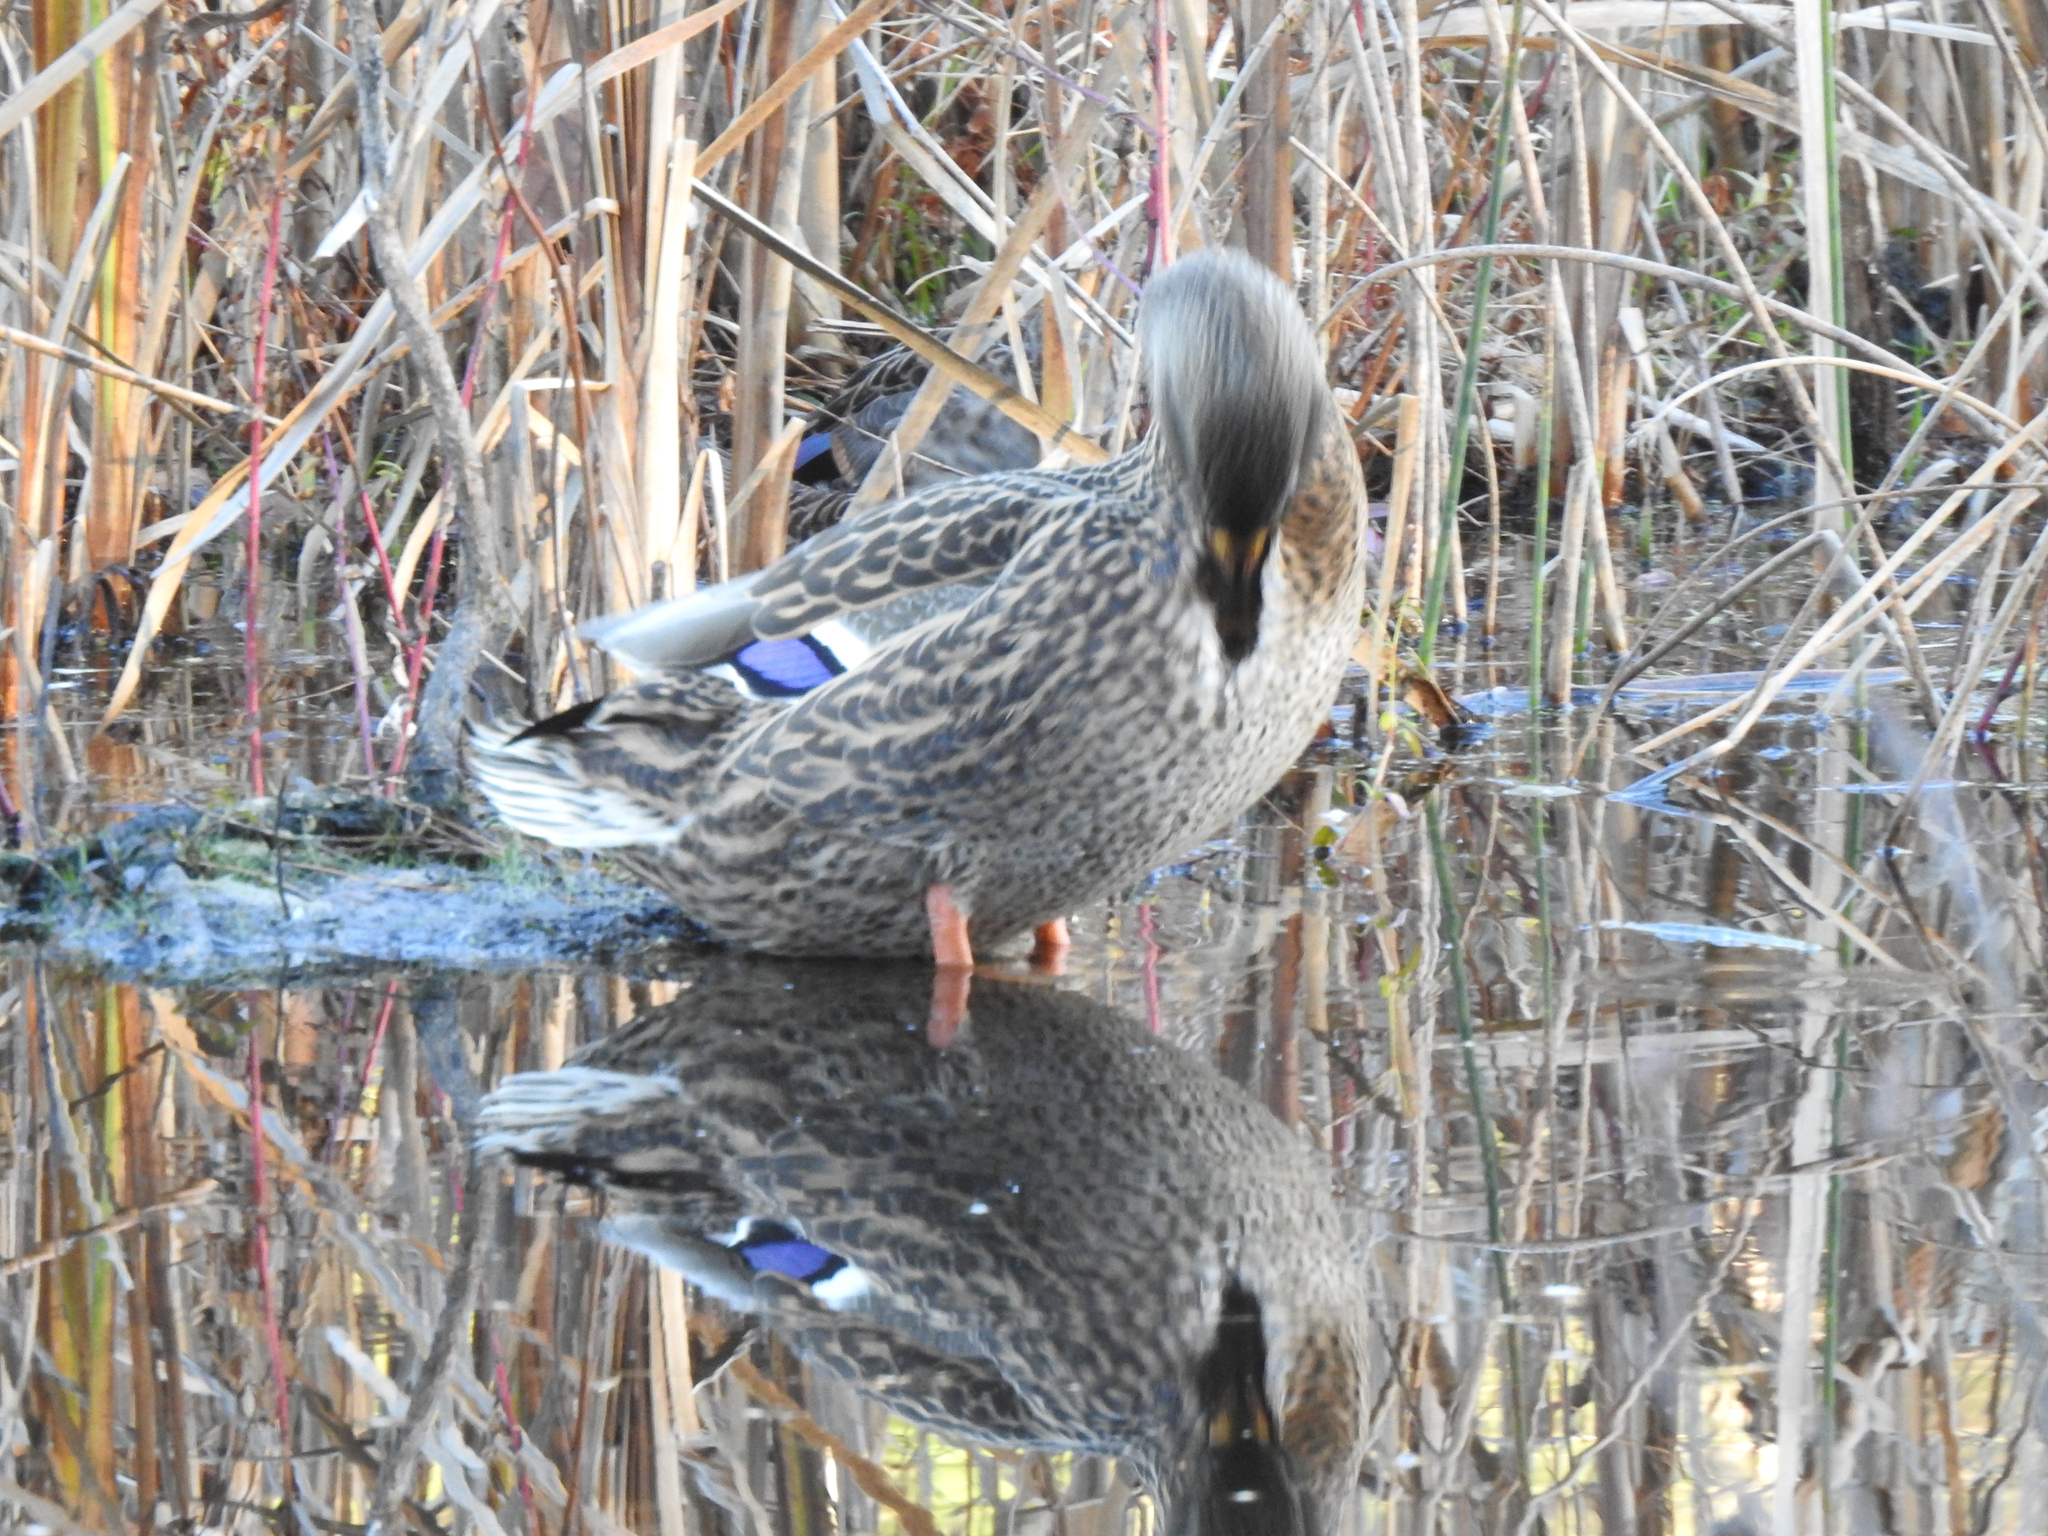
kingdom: Animalia
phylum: Chordata
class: Aves
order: Anseriformes
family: Anatidae
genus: Anas
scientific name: Anas platyrhynchos
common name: Mallard
